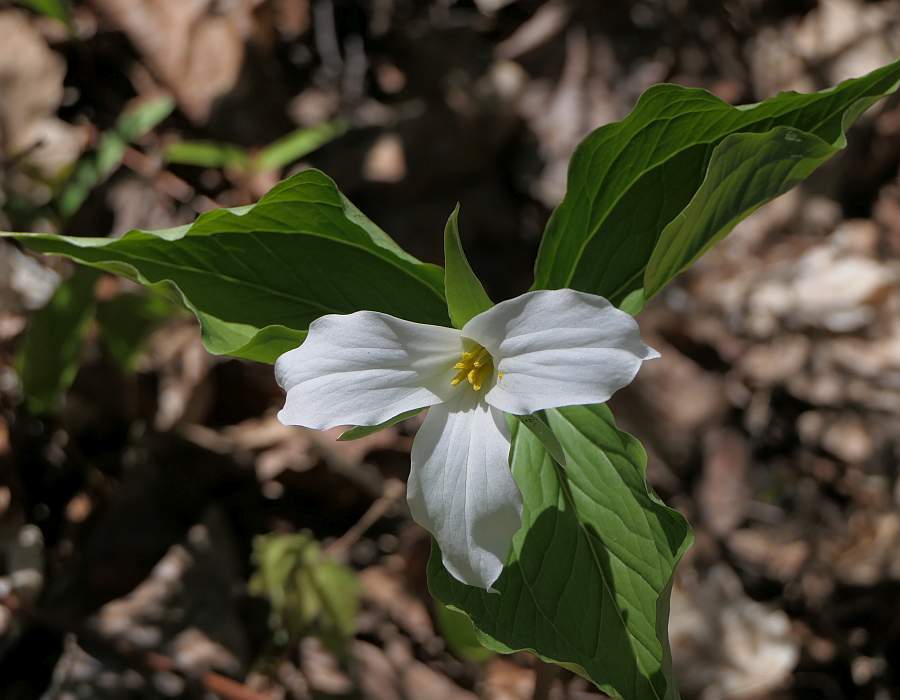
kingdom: Plantae
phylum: Tracheophyta
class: Liliopsida
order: Liliales
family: Melanthiaceae
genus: Trillium
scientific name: Trillium grandiflorum
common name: Great white trillium
